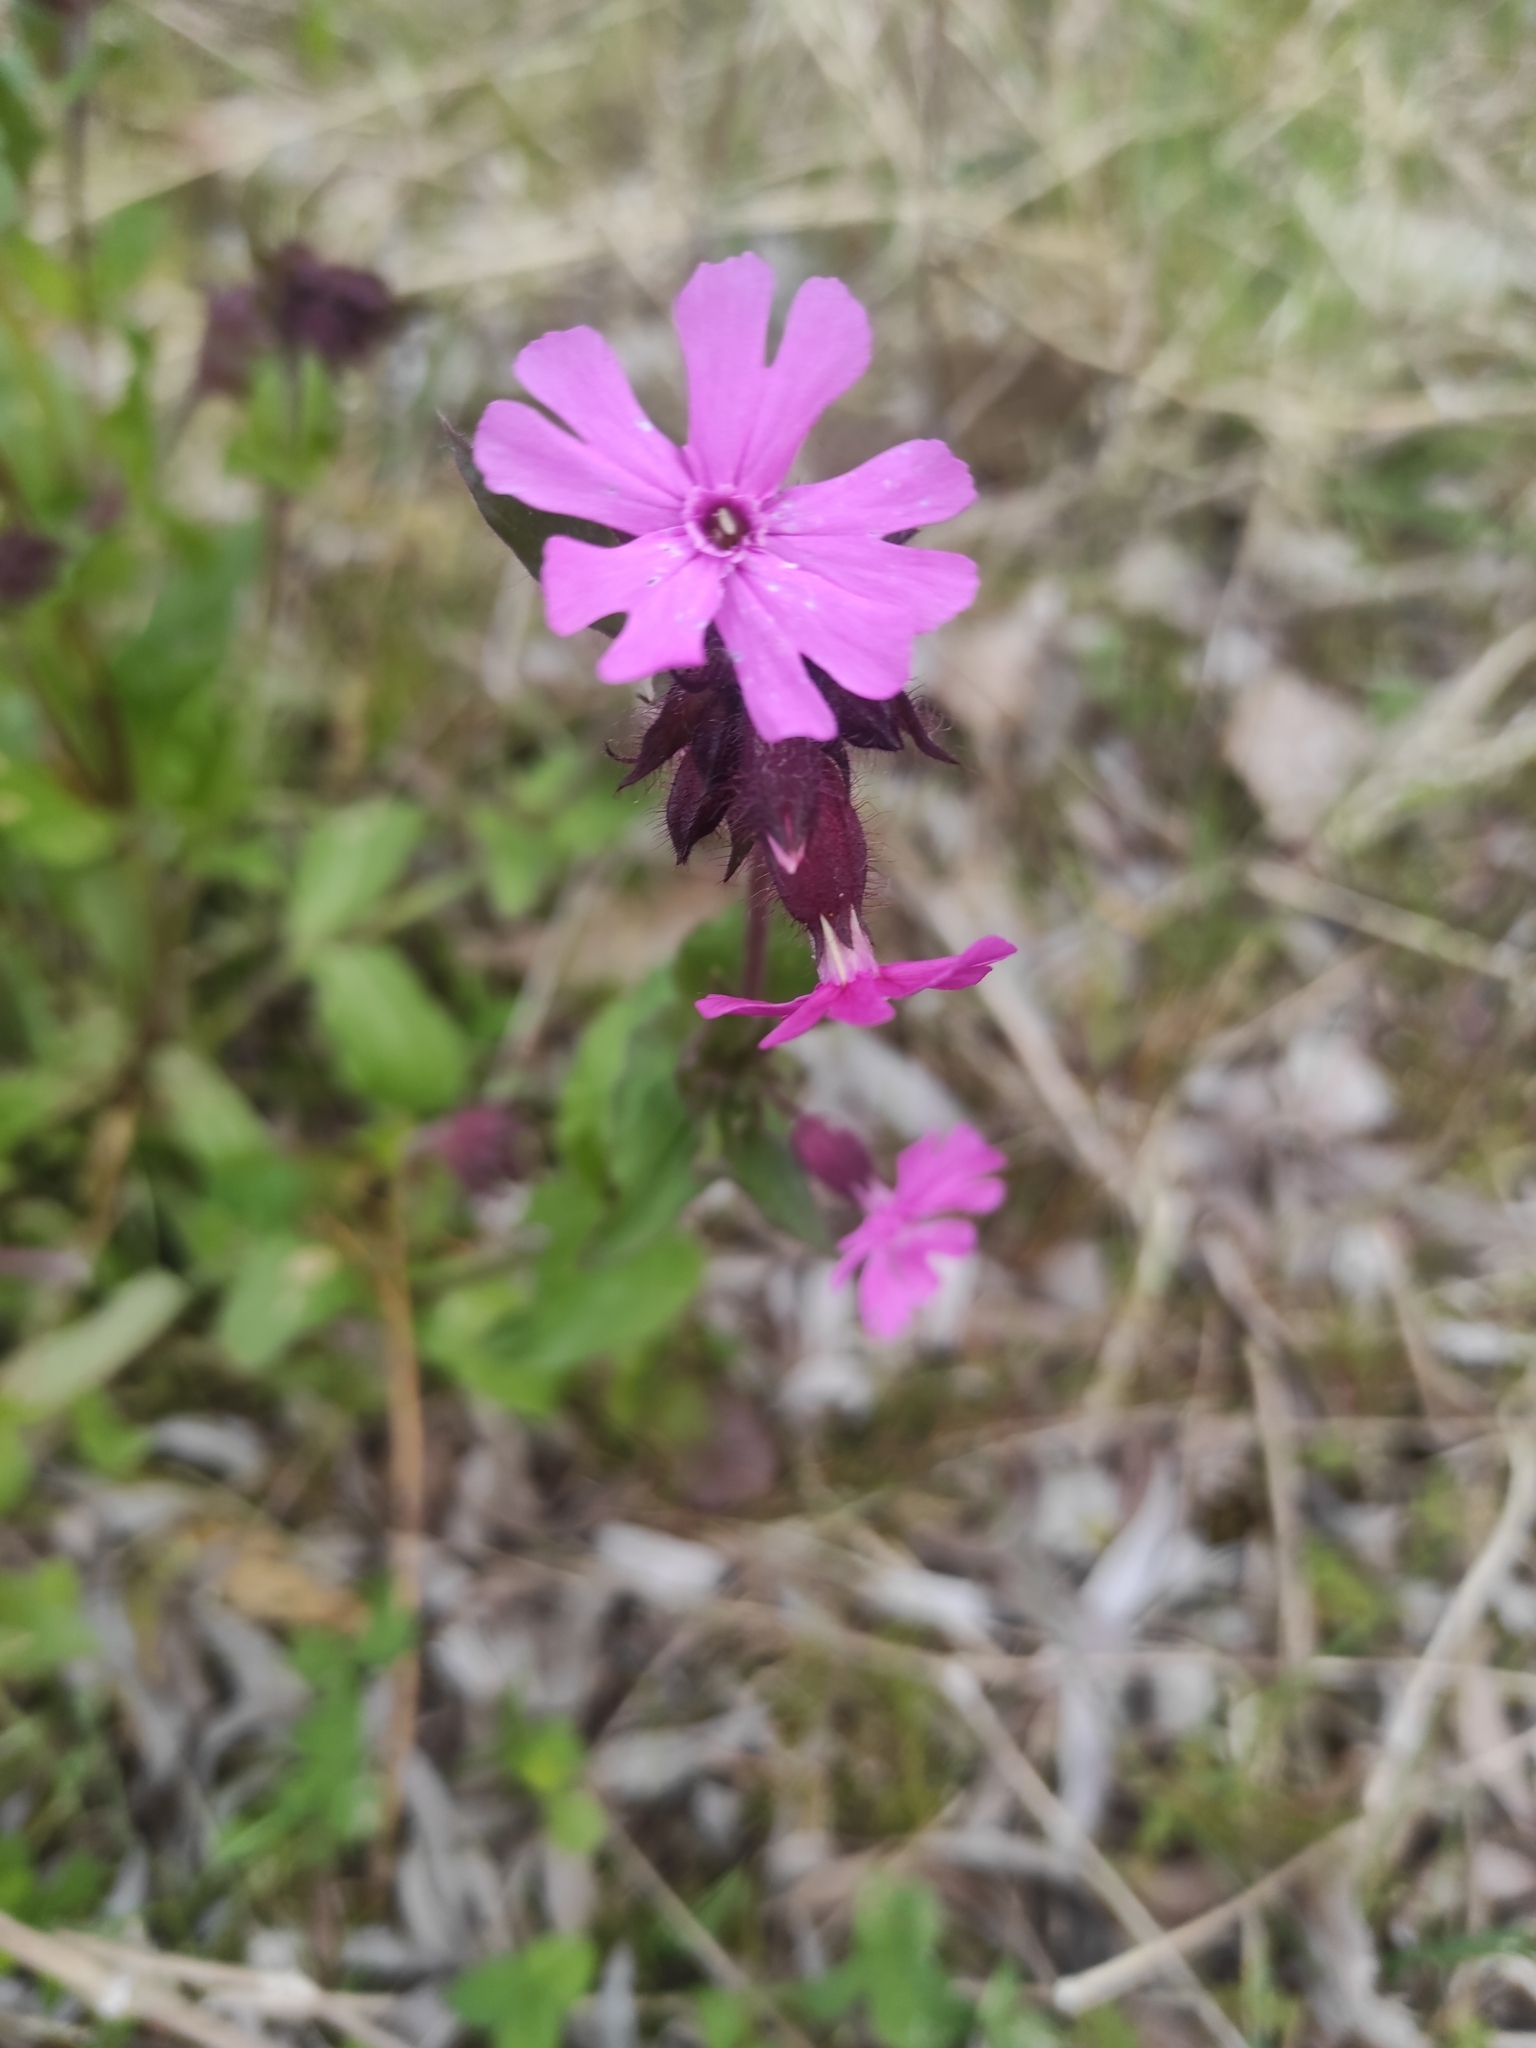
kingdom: Plantae
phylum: Tracheophyta
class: Magnoliopsida
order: Caryophyllales
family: Caryophyllaceae
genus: Silene
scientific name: Silene dioica
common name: Red campion
